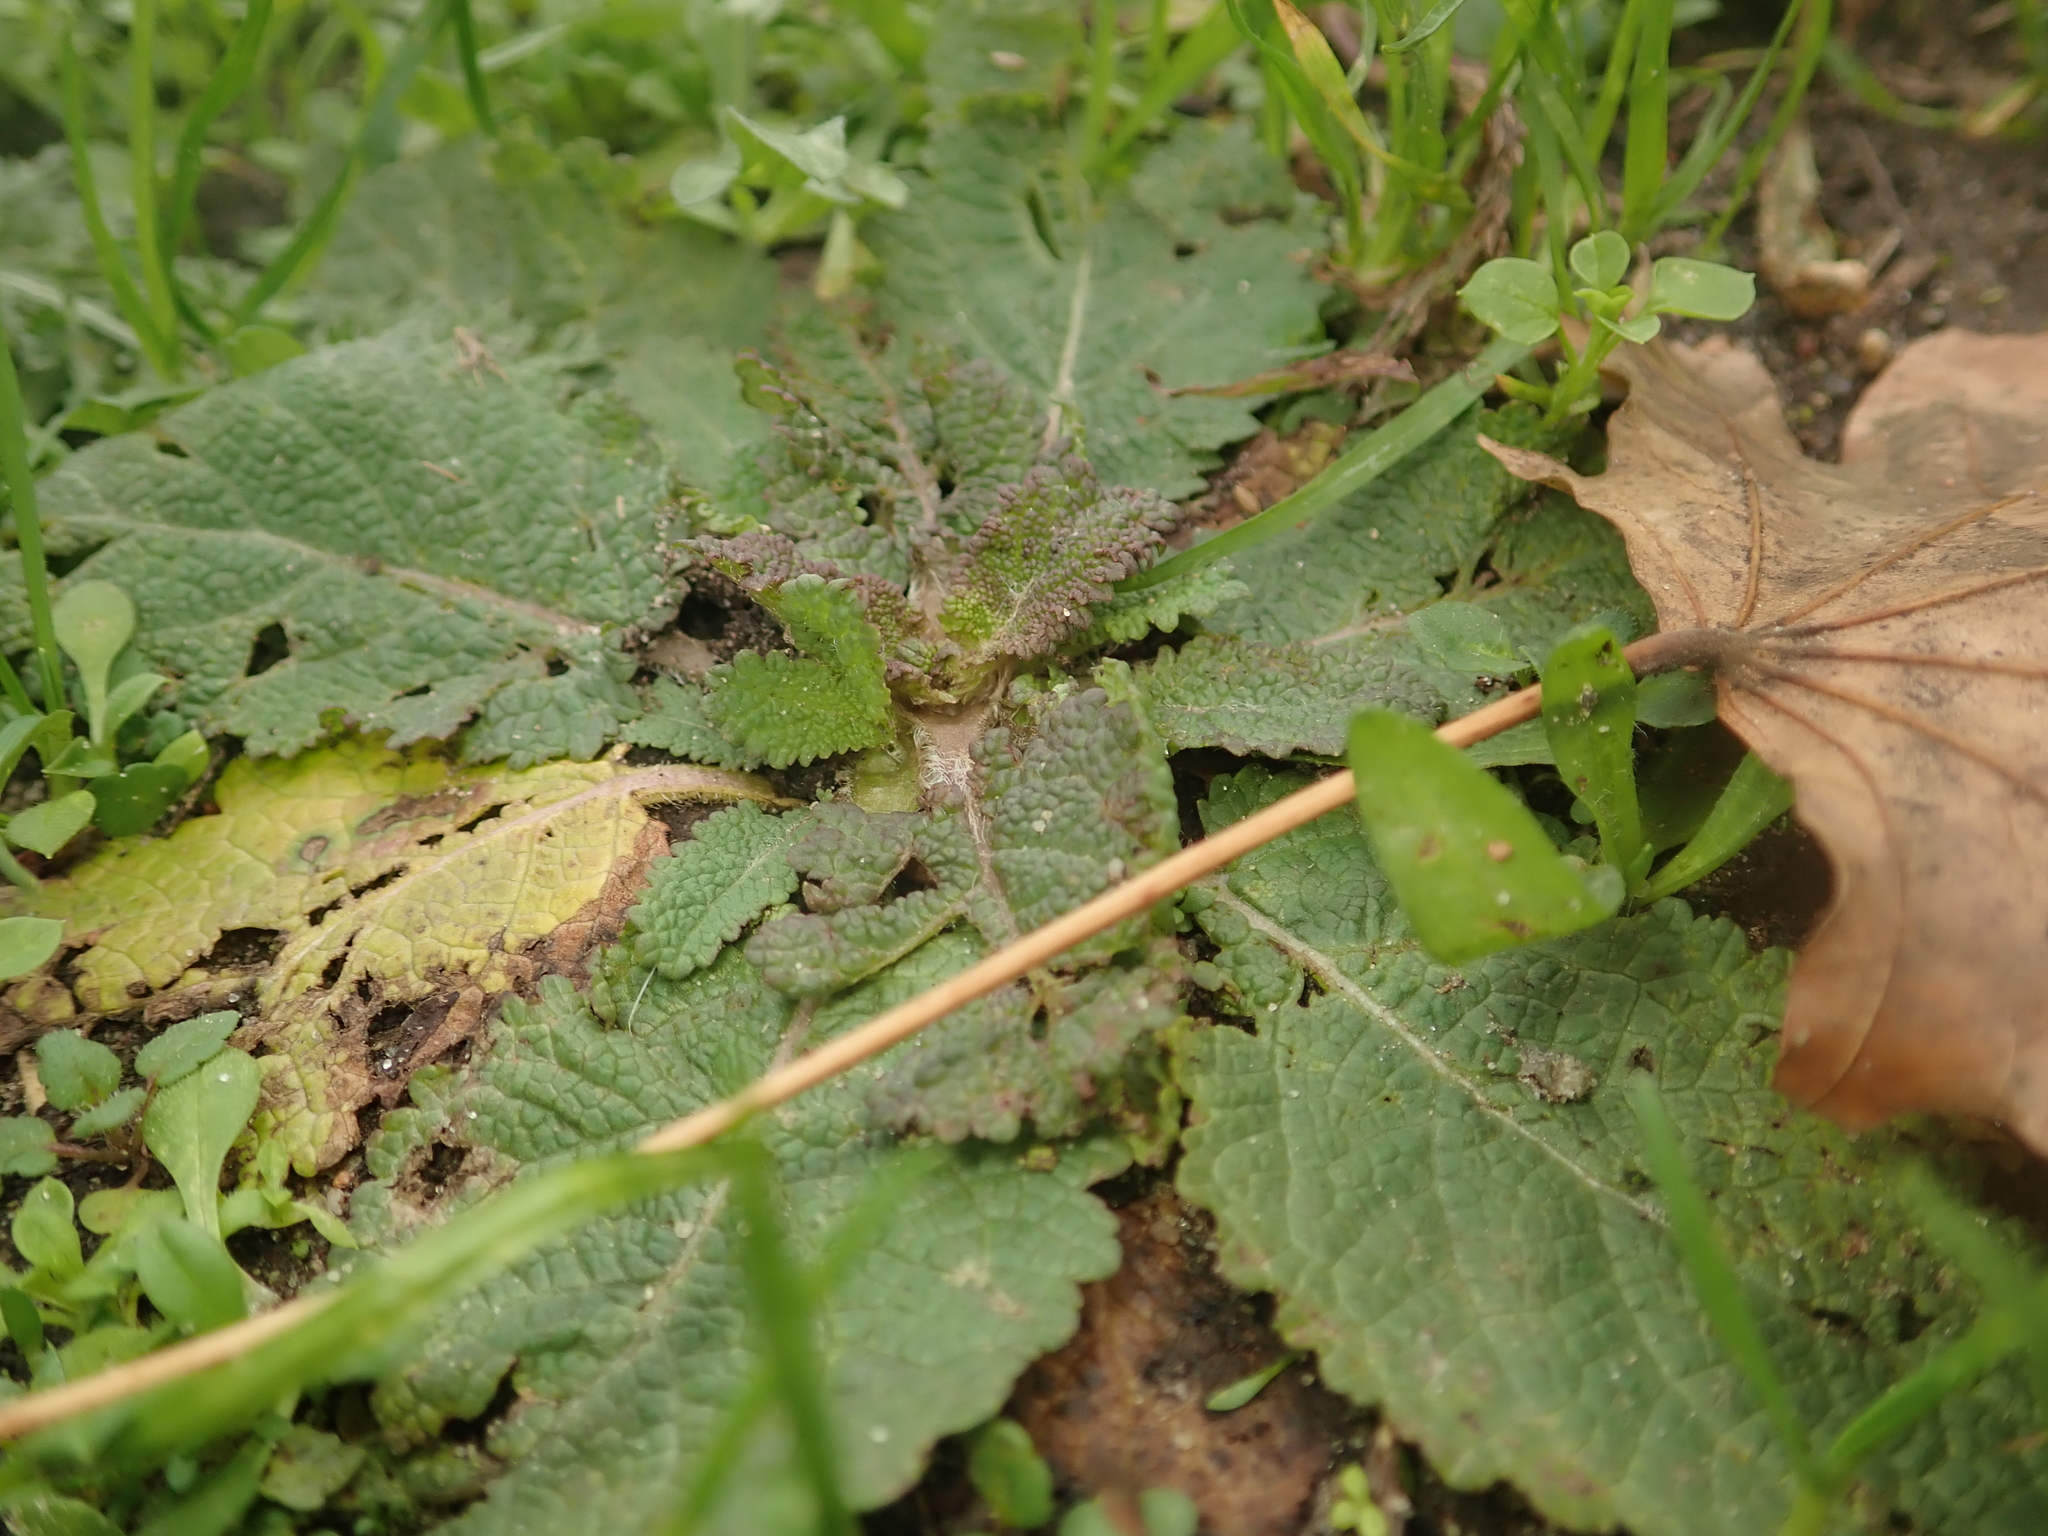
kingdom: Plantae
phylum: Tracheophyta
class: Magnoliopsida
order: Lamiales
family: Lamiaceae
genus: Salvia
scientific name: Salvia pratensis
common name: Meadow sage
